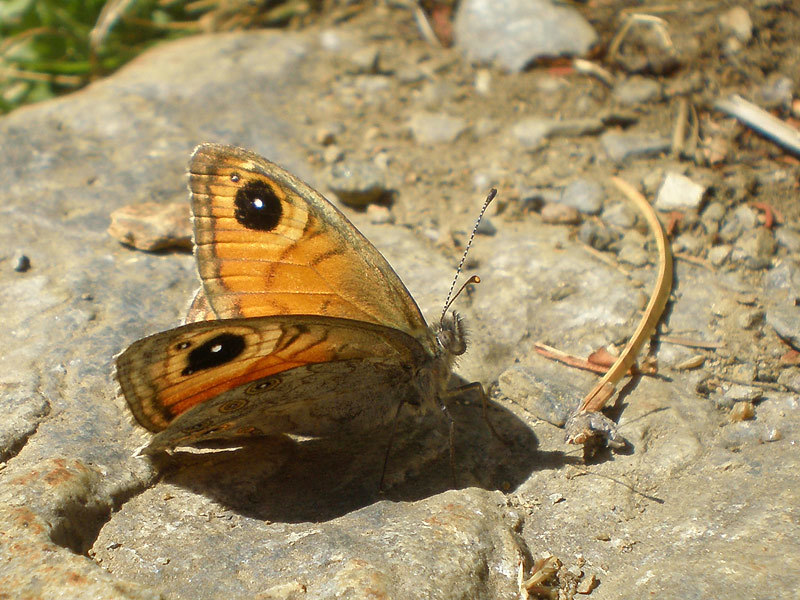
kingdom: Animalia
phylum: Arthropoda
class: Insecta
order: Lepidoptera
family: Nymphalidae
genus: Pararge
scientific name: Pararge Lasiommata maera
